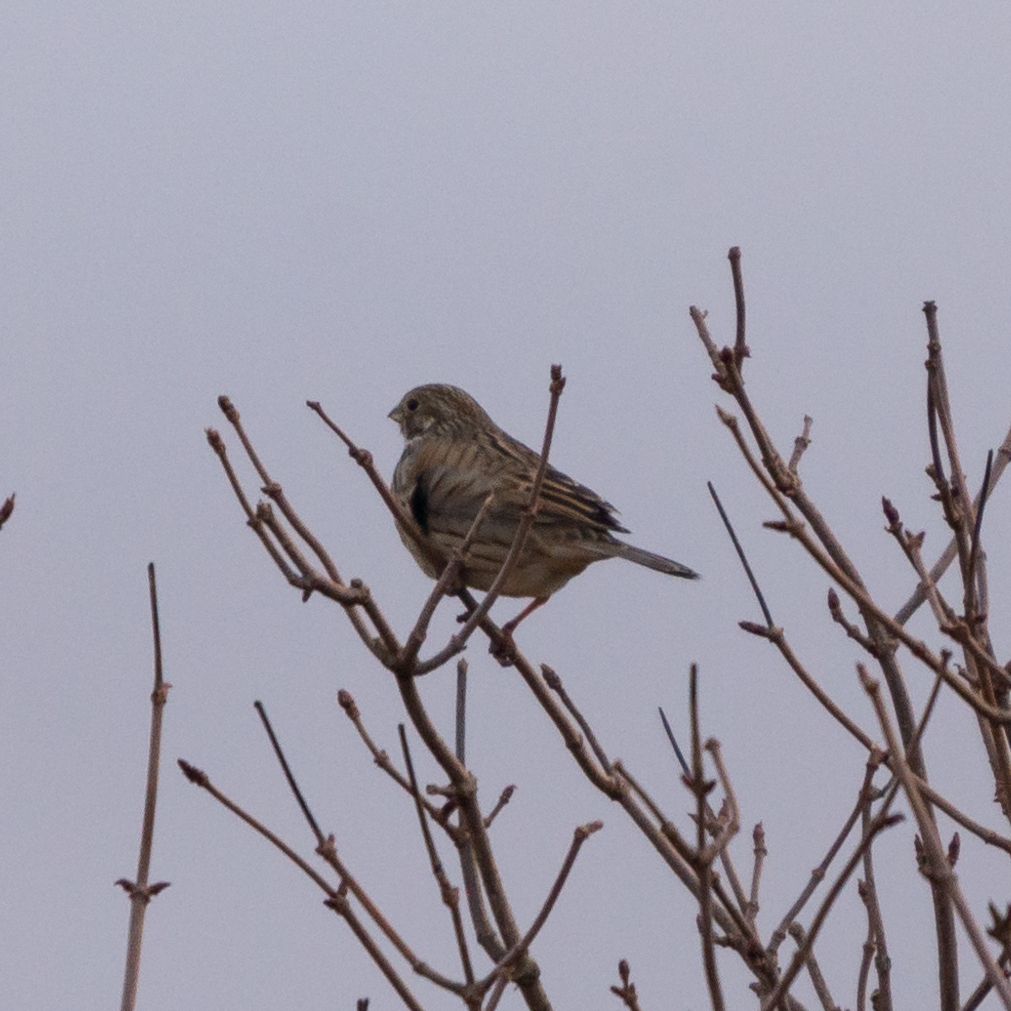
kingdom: Animalia
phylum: Chordata
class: Aves
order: Passeriformes
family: Emberizidae
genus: Emberiza
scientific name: Emberiza calandra
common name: Corn bunting
